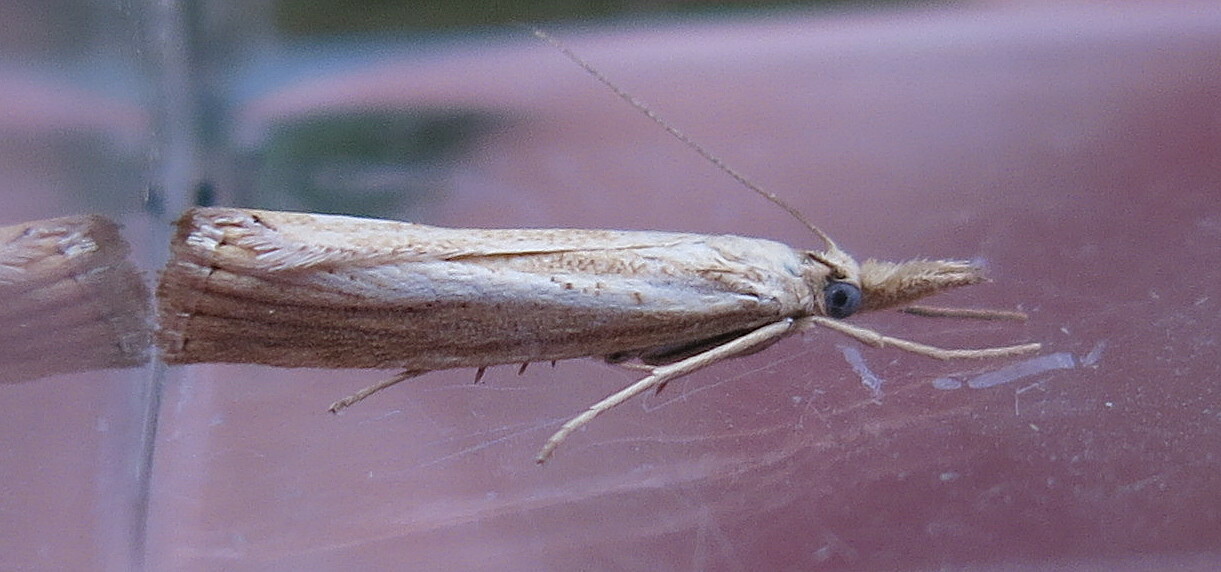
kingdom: Animalia
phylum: Arthropoda
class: Insecta
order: Lepidoptera
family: Crambidae
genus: Agriphila
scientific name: Agriphila straminella
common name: Straw grass-veneer
